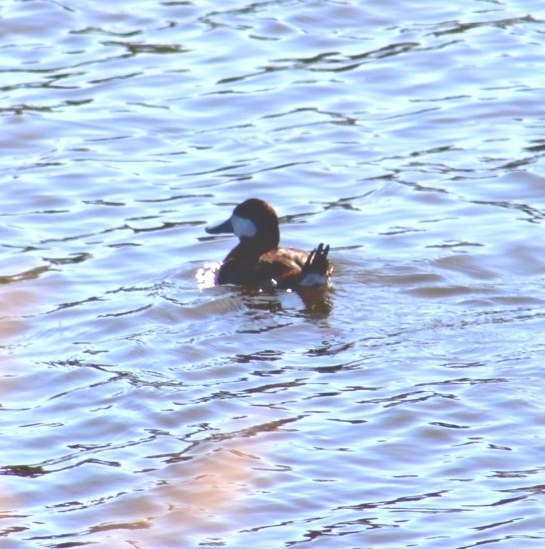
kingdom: Animalia
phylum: Chordata
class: Aves
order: Anseriformes
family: Anatidae
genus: Oxyura
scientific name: Oxyura jamaicensis
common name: Ruddy duck
